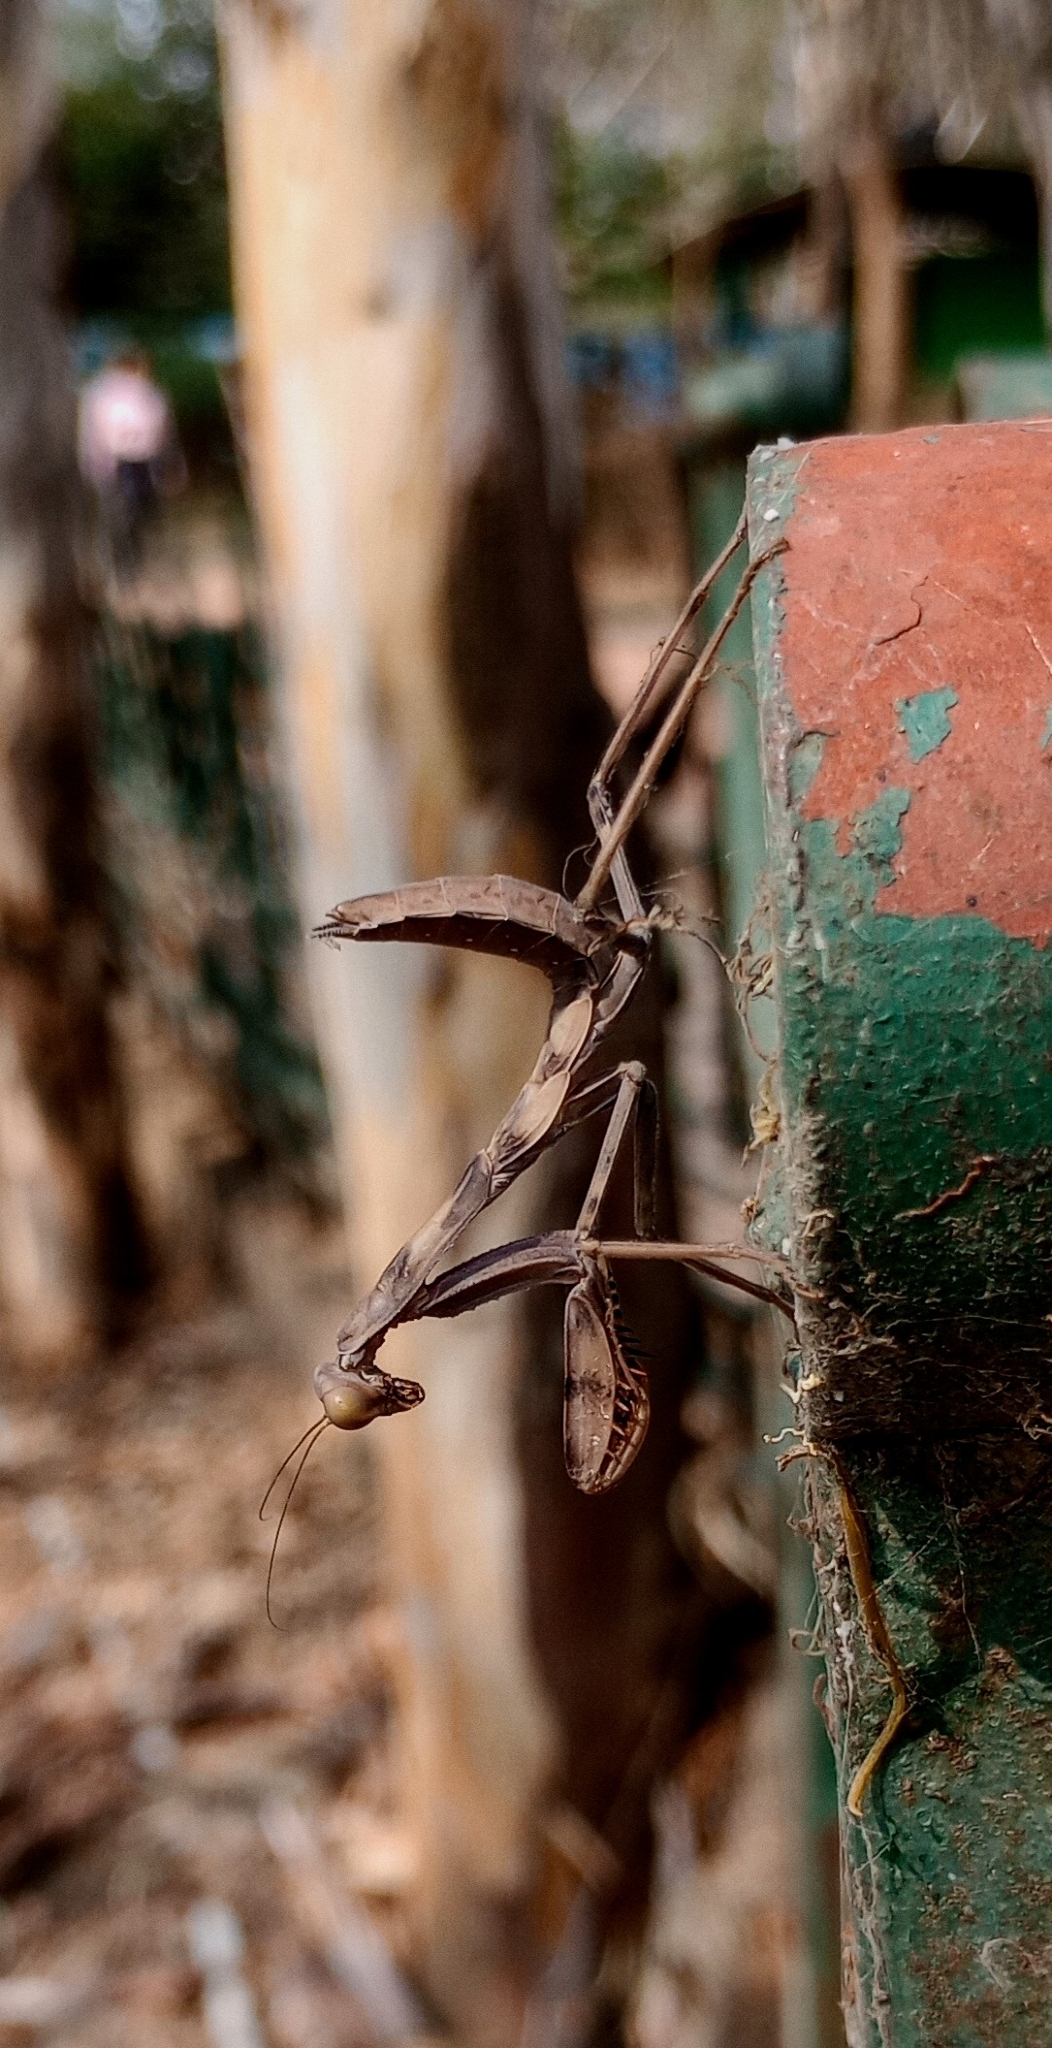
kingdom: Animalia
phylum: Arthropoda
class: Insecta
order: Mantodea
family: Mantidae
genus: Hierodula
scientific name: Hierodula tenuidentata
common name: Giant asian mantis
